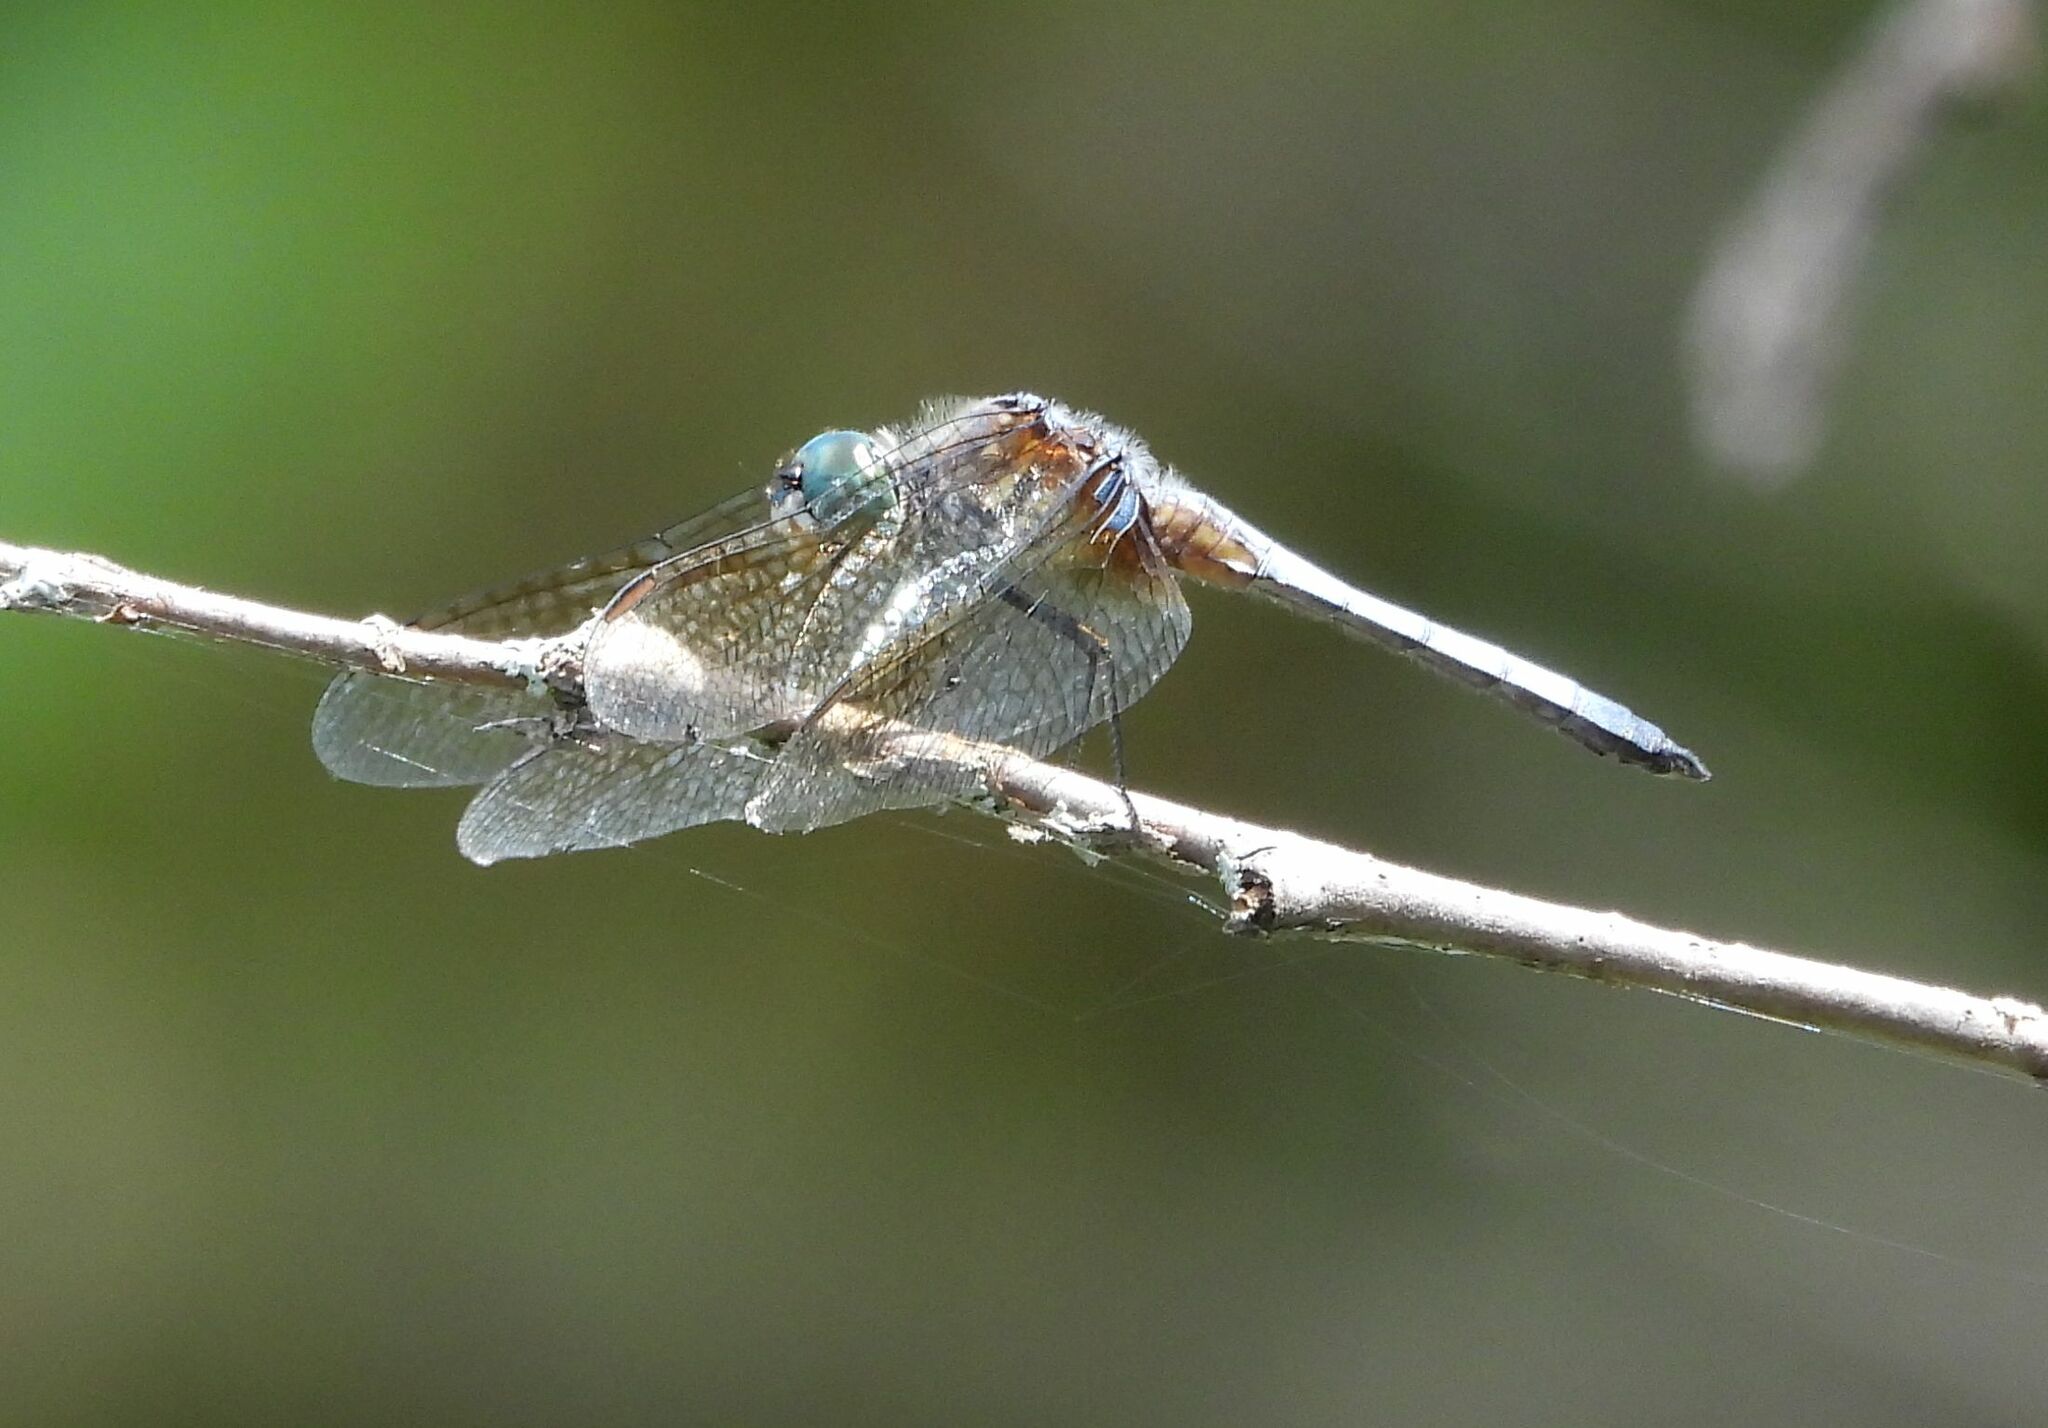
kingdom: Animalia
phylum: Arthropoda
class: Insecta
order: Odonata
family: Libellulidae
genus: Pachydiplax
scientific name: Pachydiplax longipennis
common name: Blue dasher
